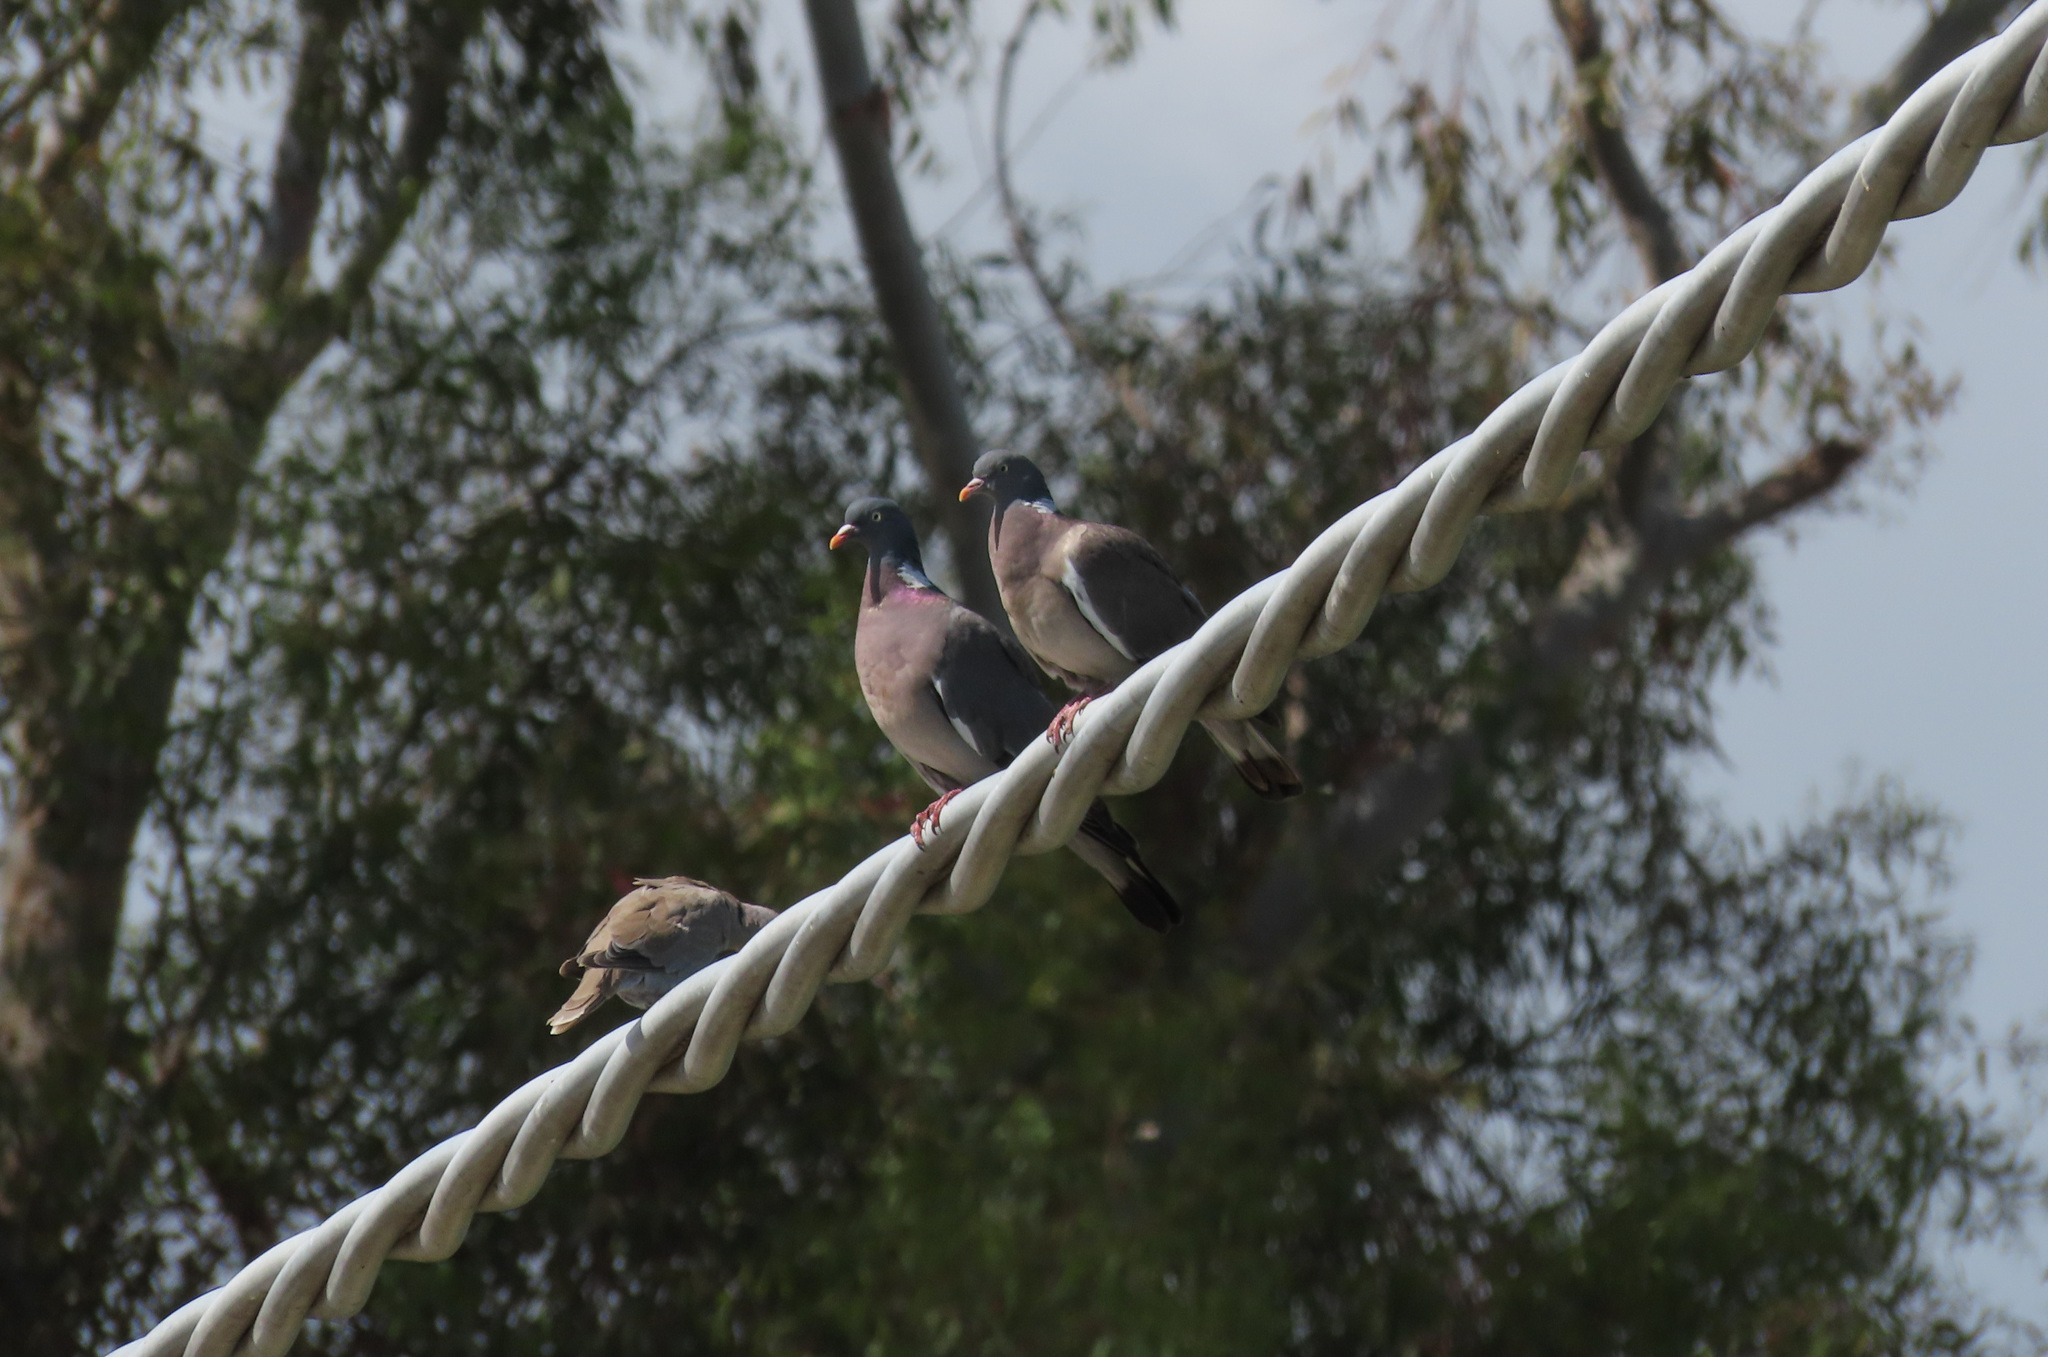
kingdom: Animalia
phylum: Chordata
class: Aves
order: Columbiformes
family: Columbidae
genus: Columba
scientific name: Columba palumbus
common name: Common wood pigeon
